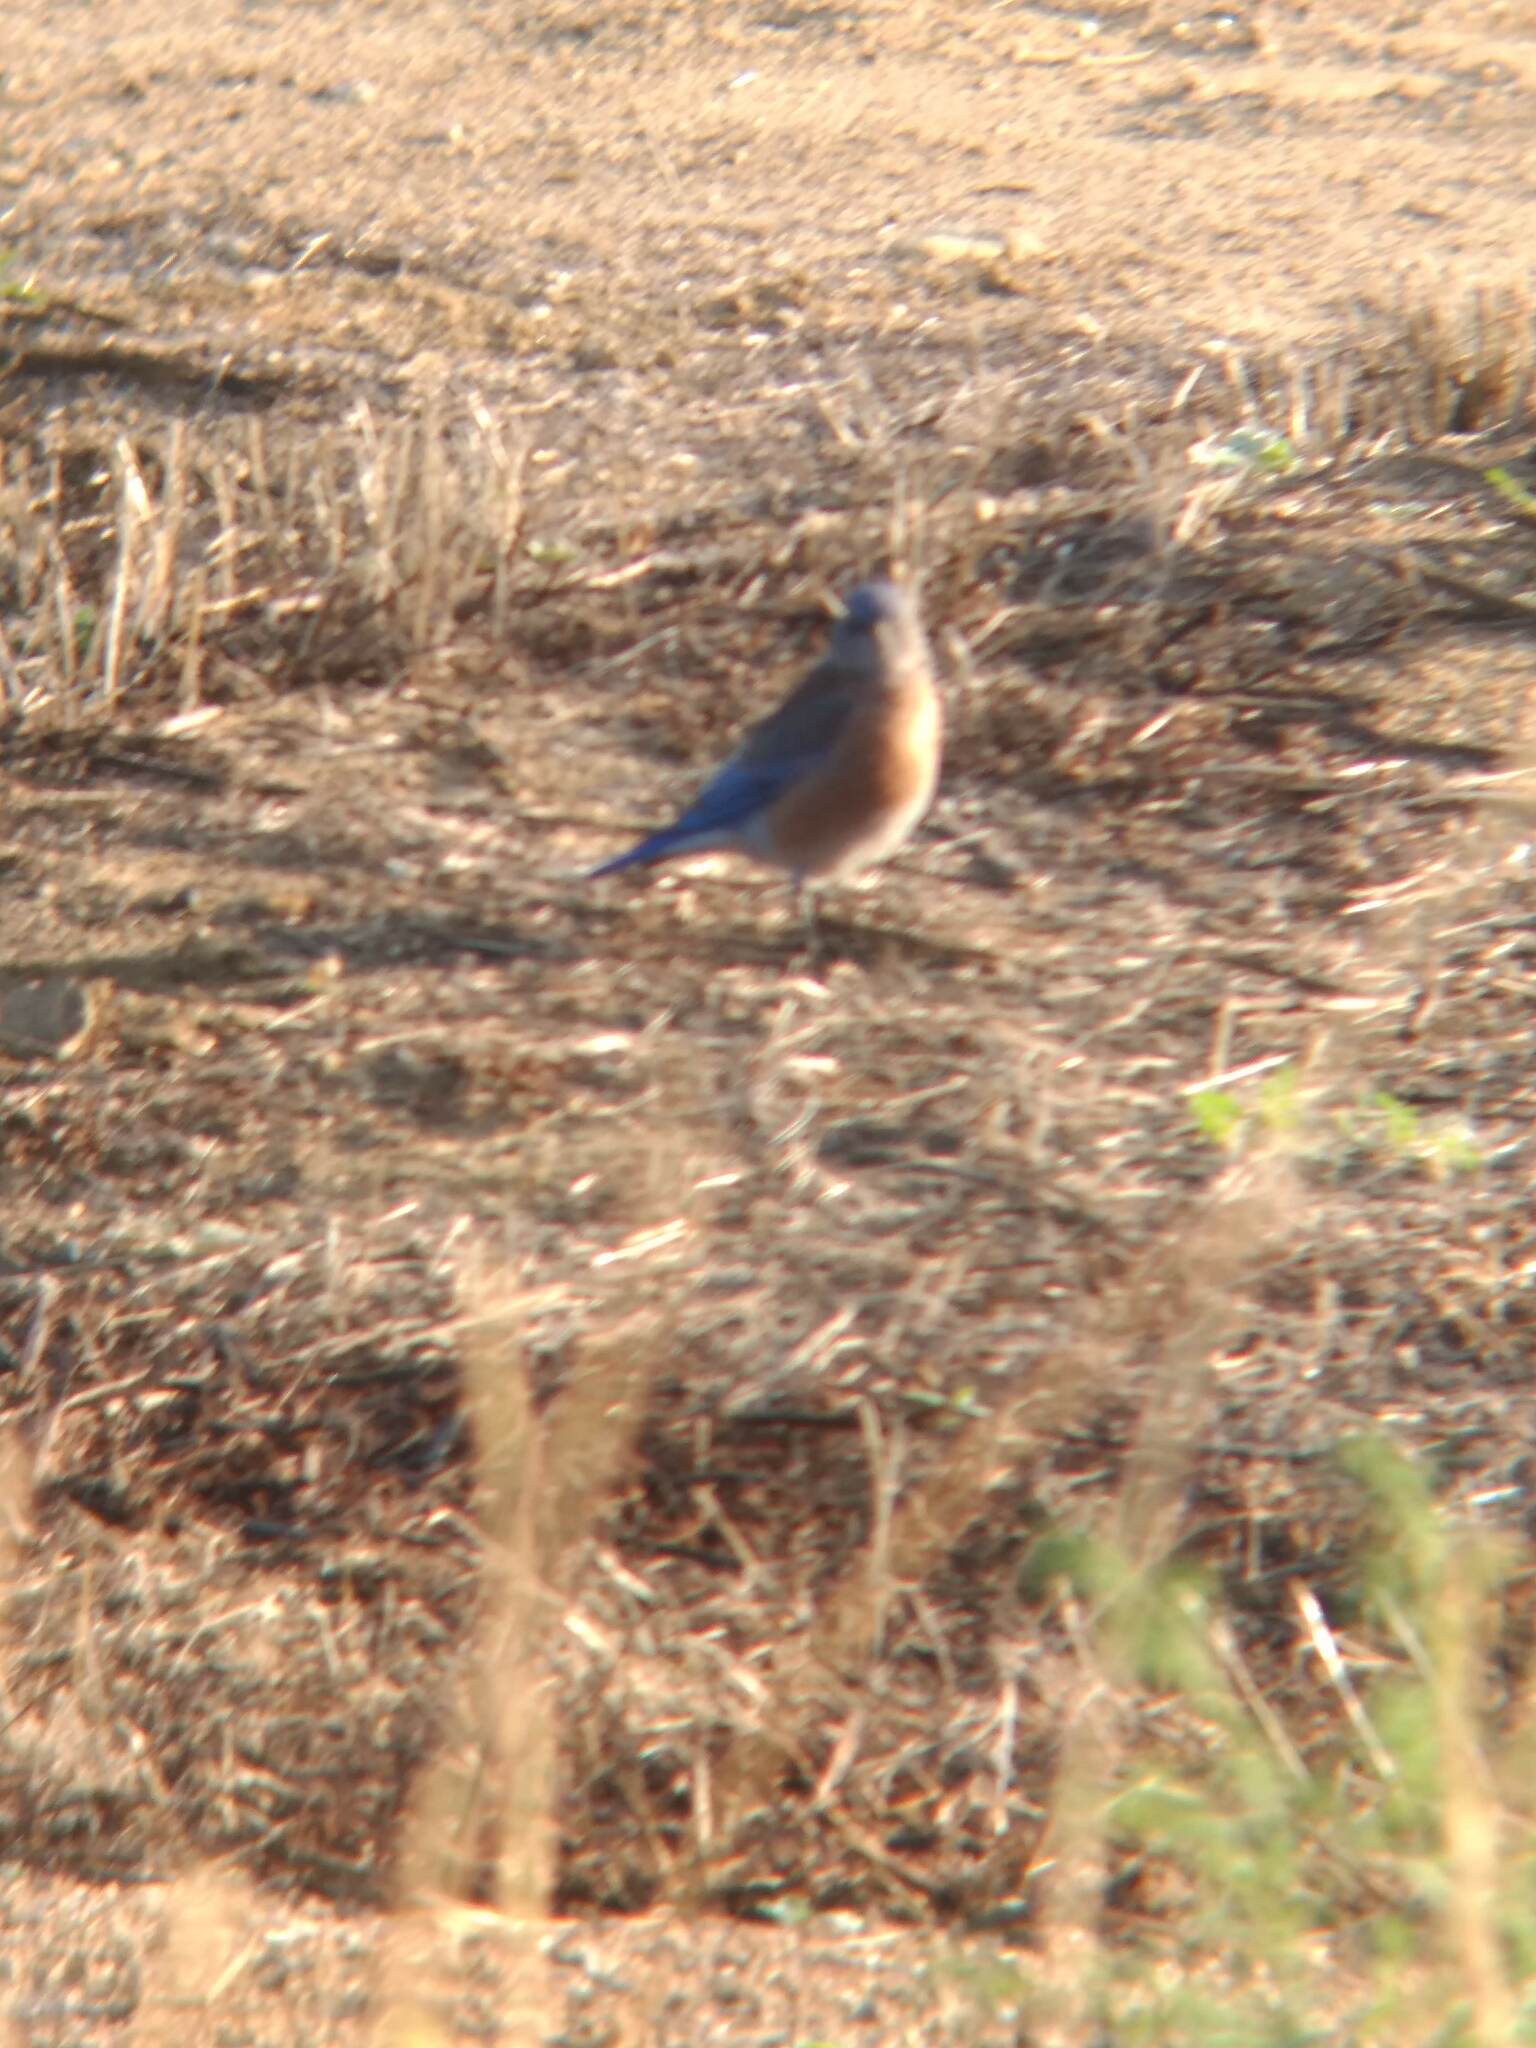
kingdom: Animalia
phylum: Chordata
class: Aves
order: Passeriformes
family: Turdidae
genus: Sialia
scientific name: Sialia mexicana
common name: Western bluebird
